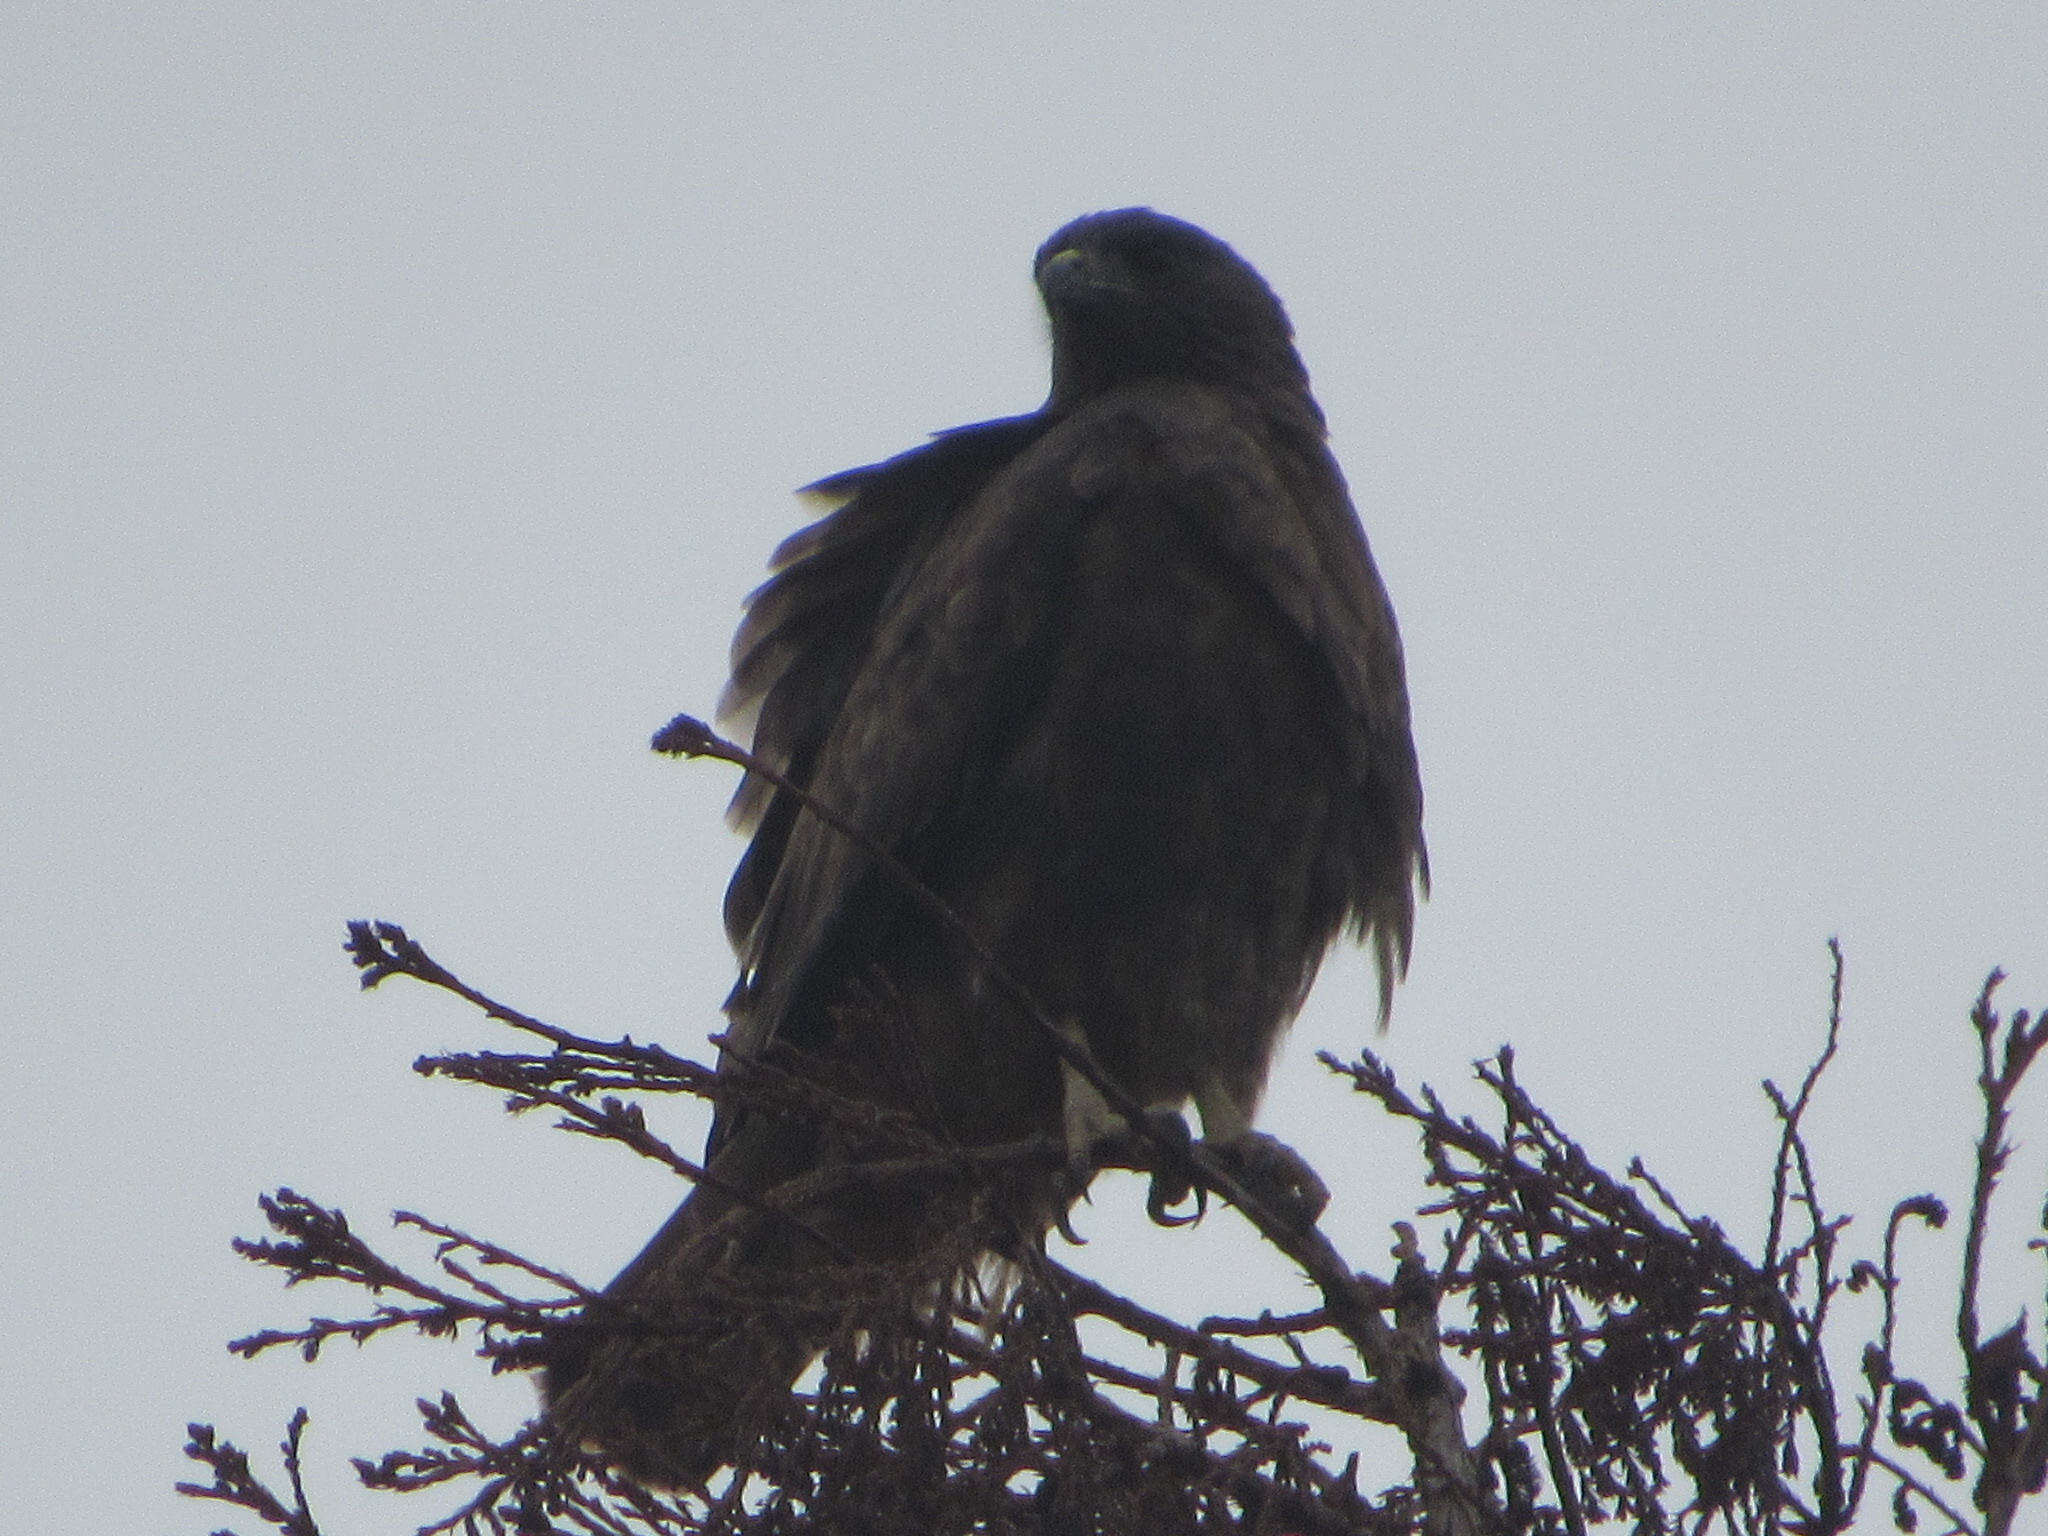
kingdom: Animalia
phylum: Chordata
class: Aves
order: Accipitriformes
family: Accipitridae
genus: Buteo
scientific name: Buteo jamaicensis
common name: Red-tailed hawk
